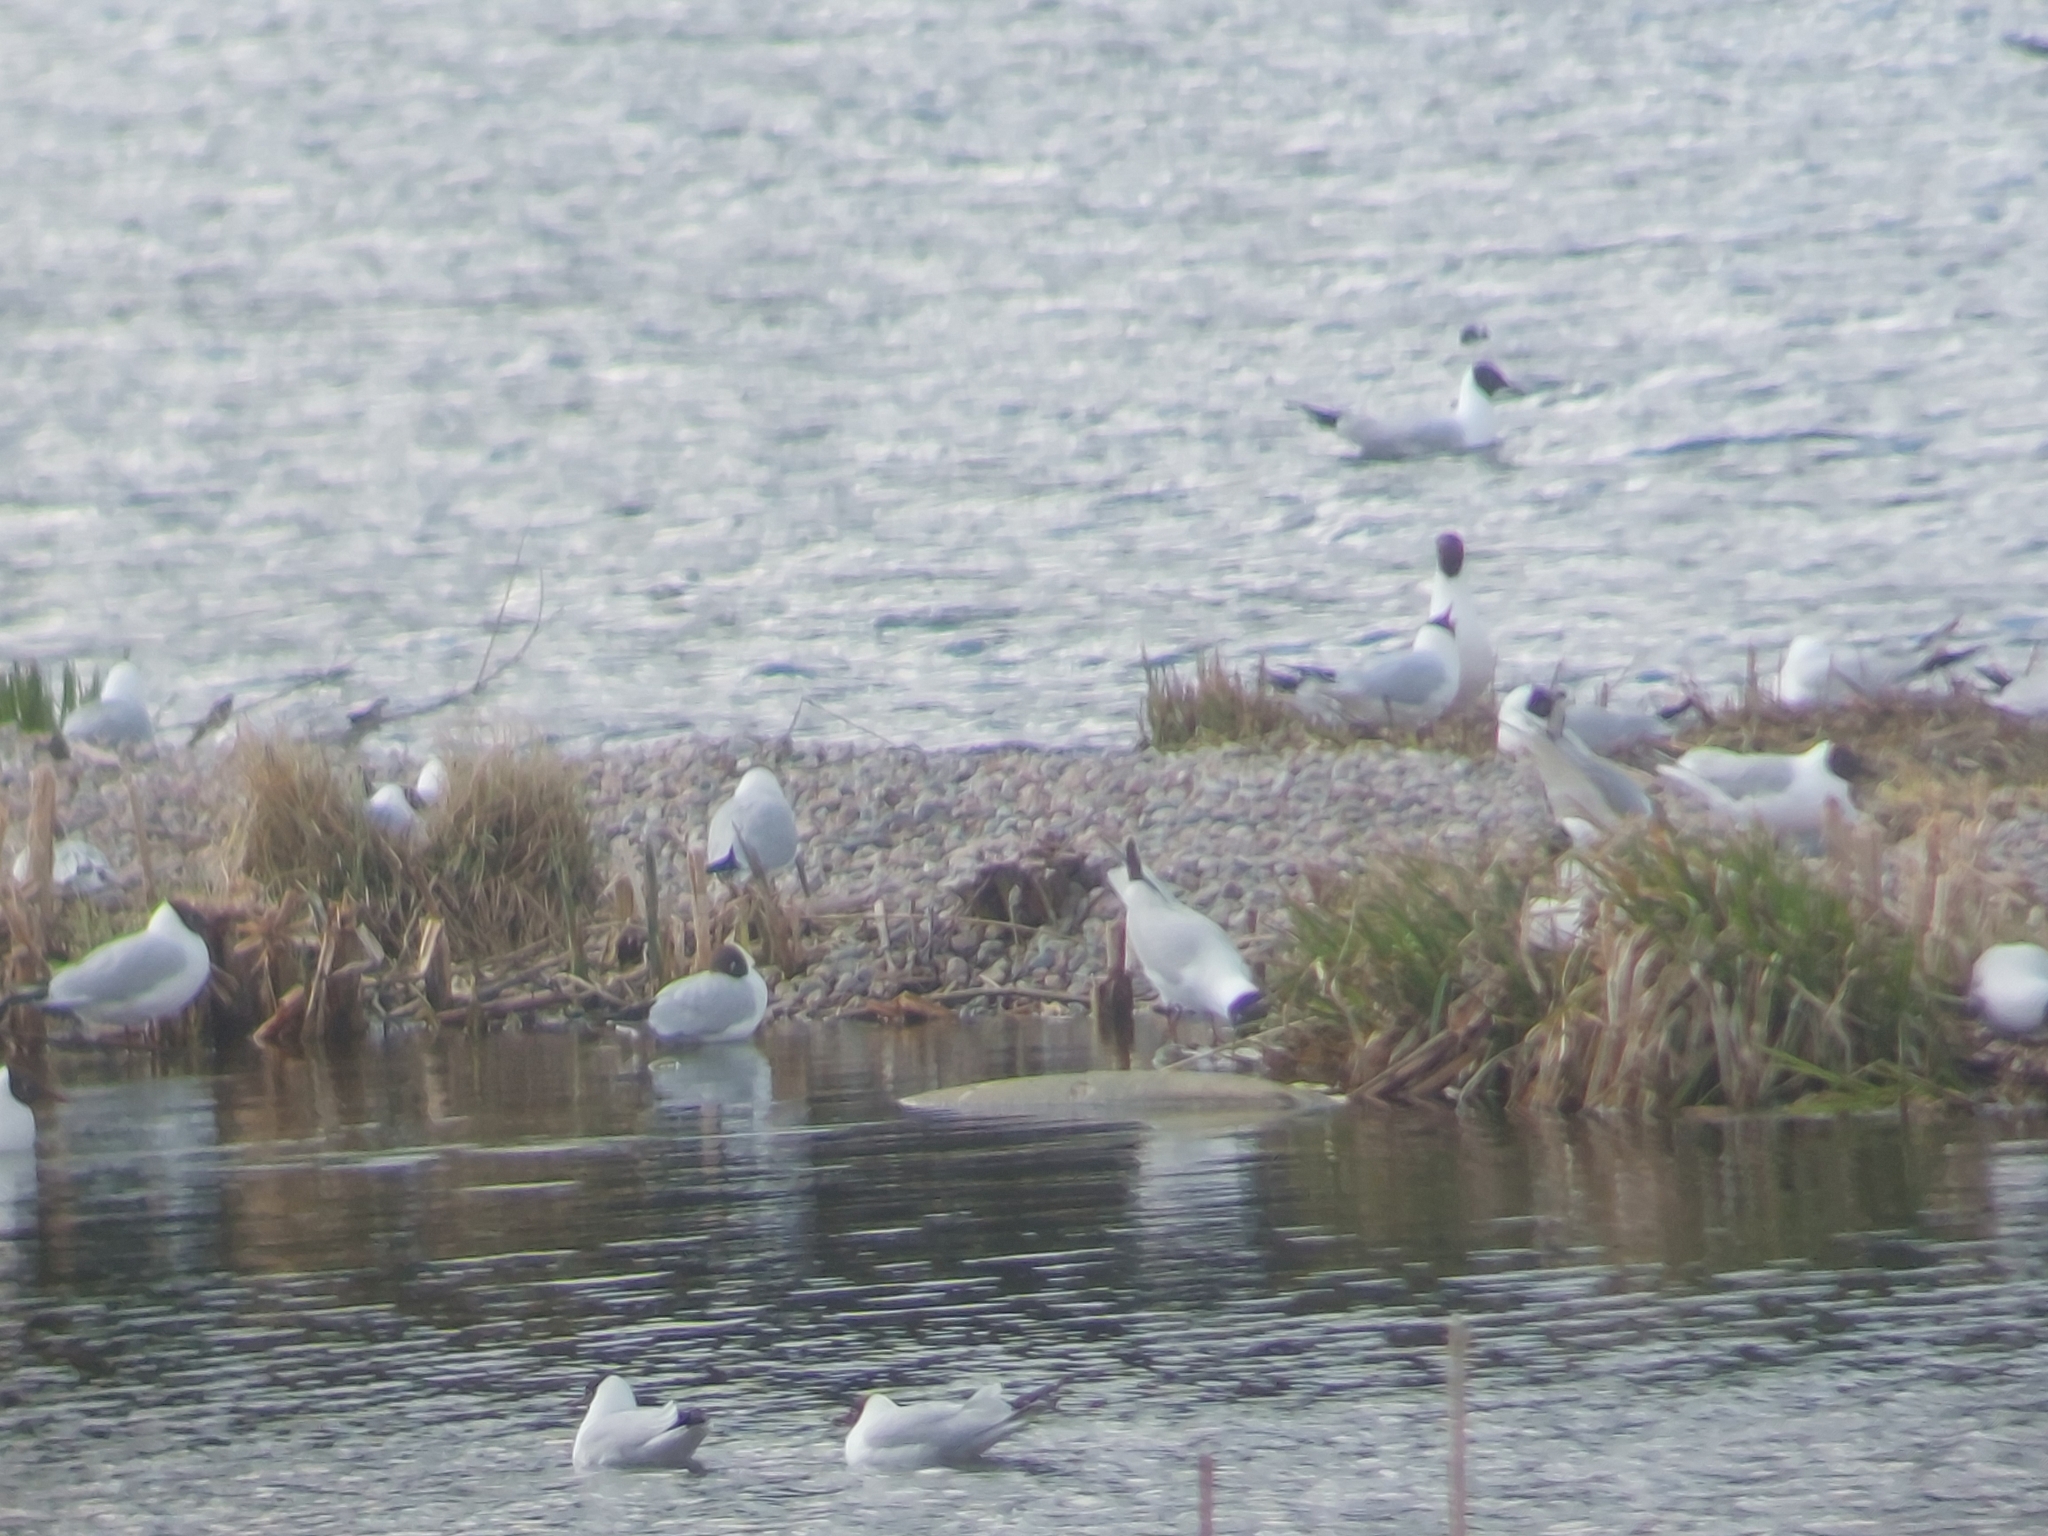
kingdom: Animalia
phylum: Chordata
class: Aves
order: Charadriiformes
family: Laridae
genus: Chroicocephalus
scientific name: Chroicocephalus ridibundus
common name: Black-headed gull
